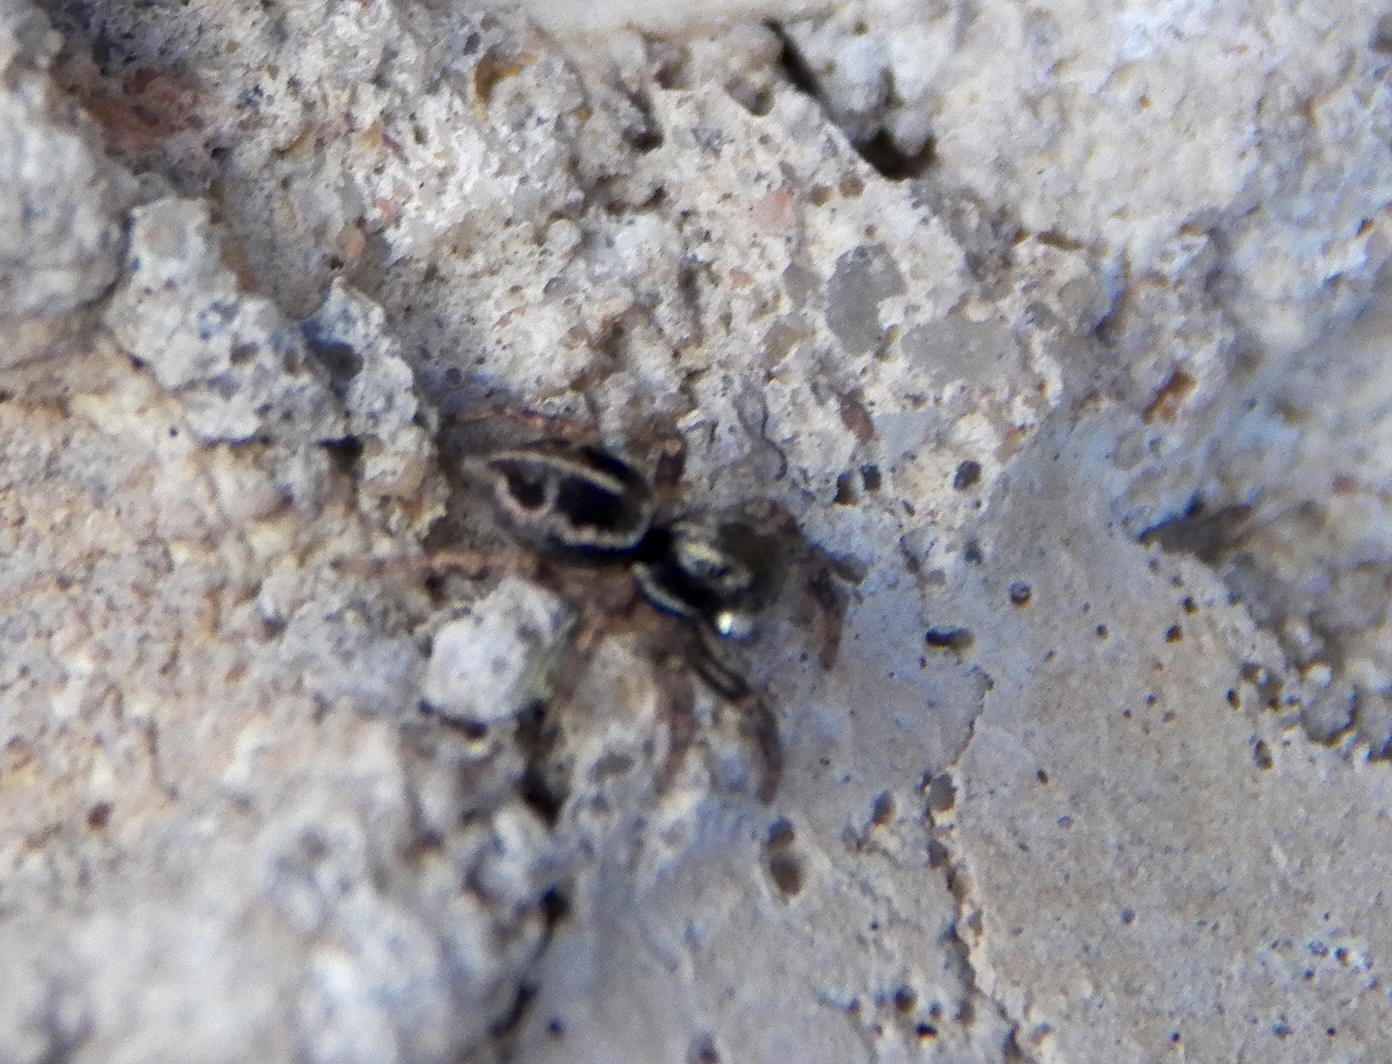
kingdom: Animalia
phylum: Arthropoda
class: Arachnida
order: Araneae
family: Salticidae
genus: Anasaitis
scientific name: Anasaitis canosa
